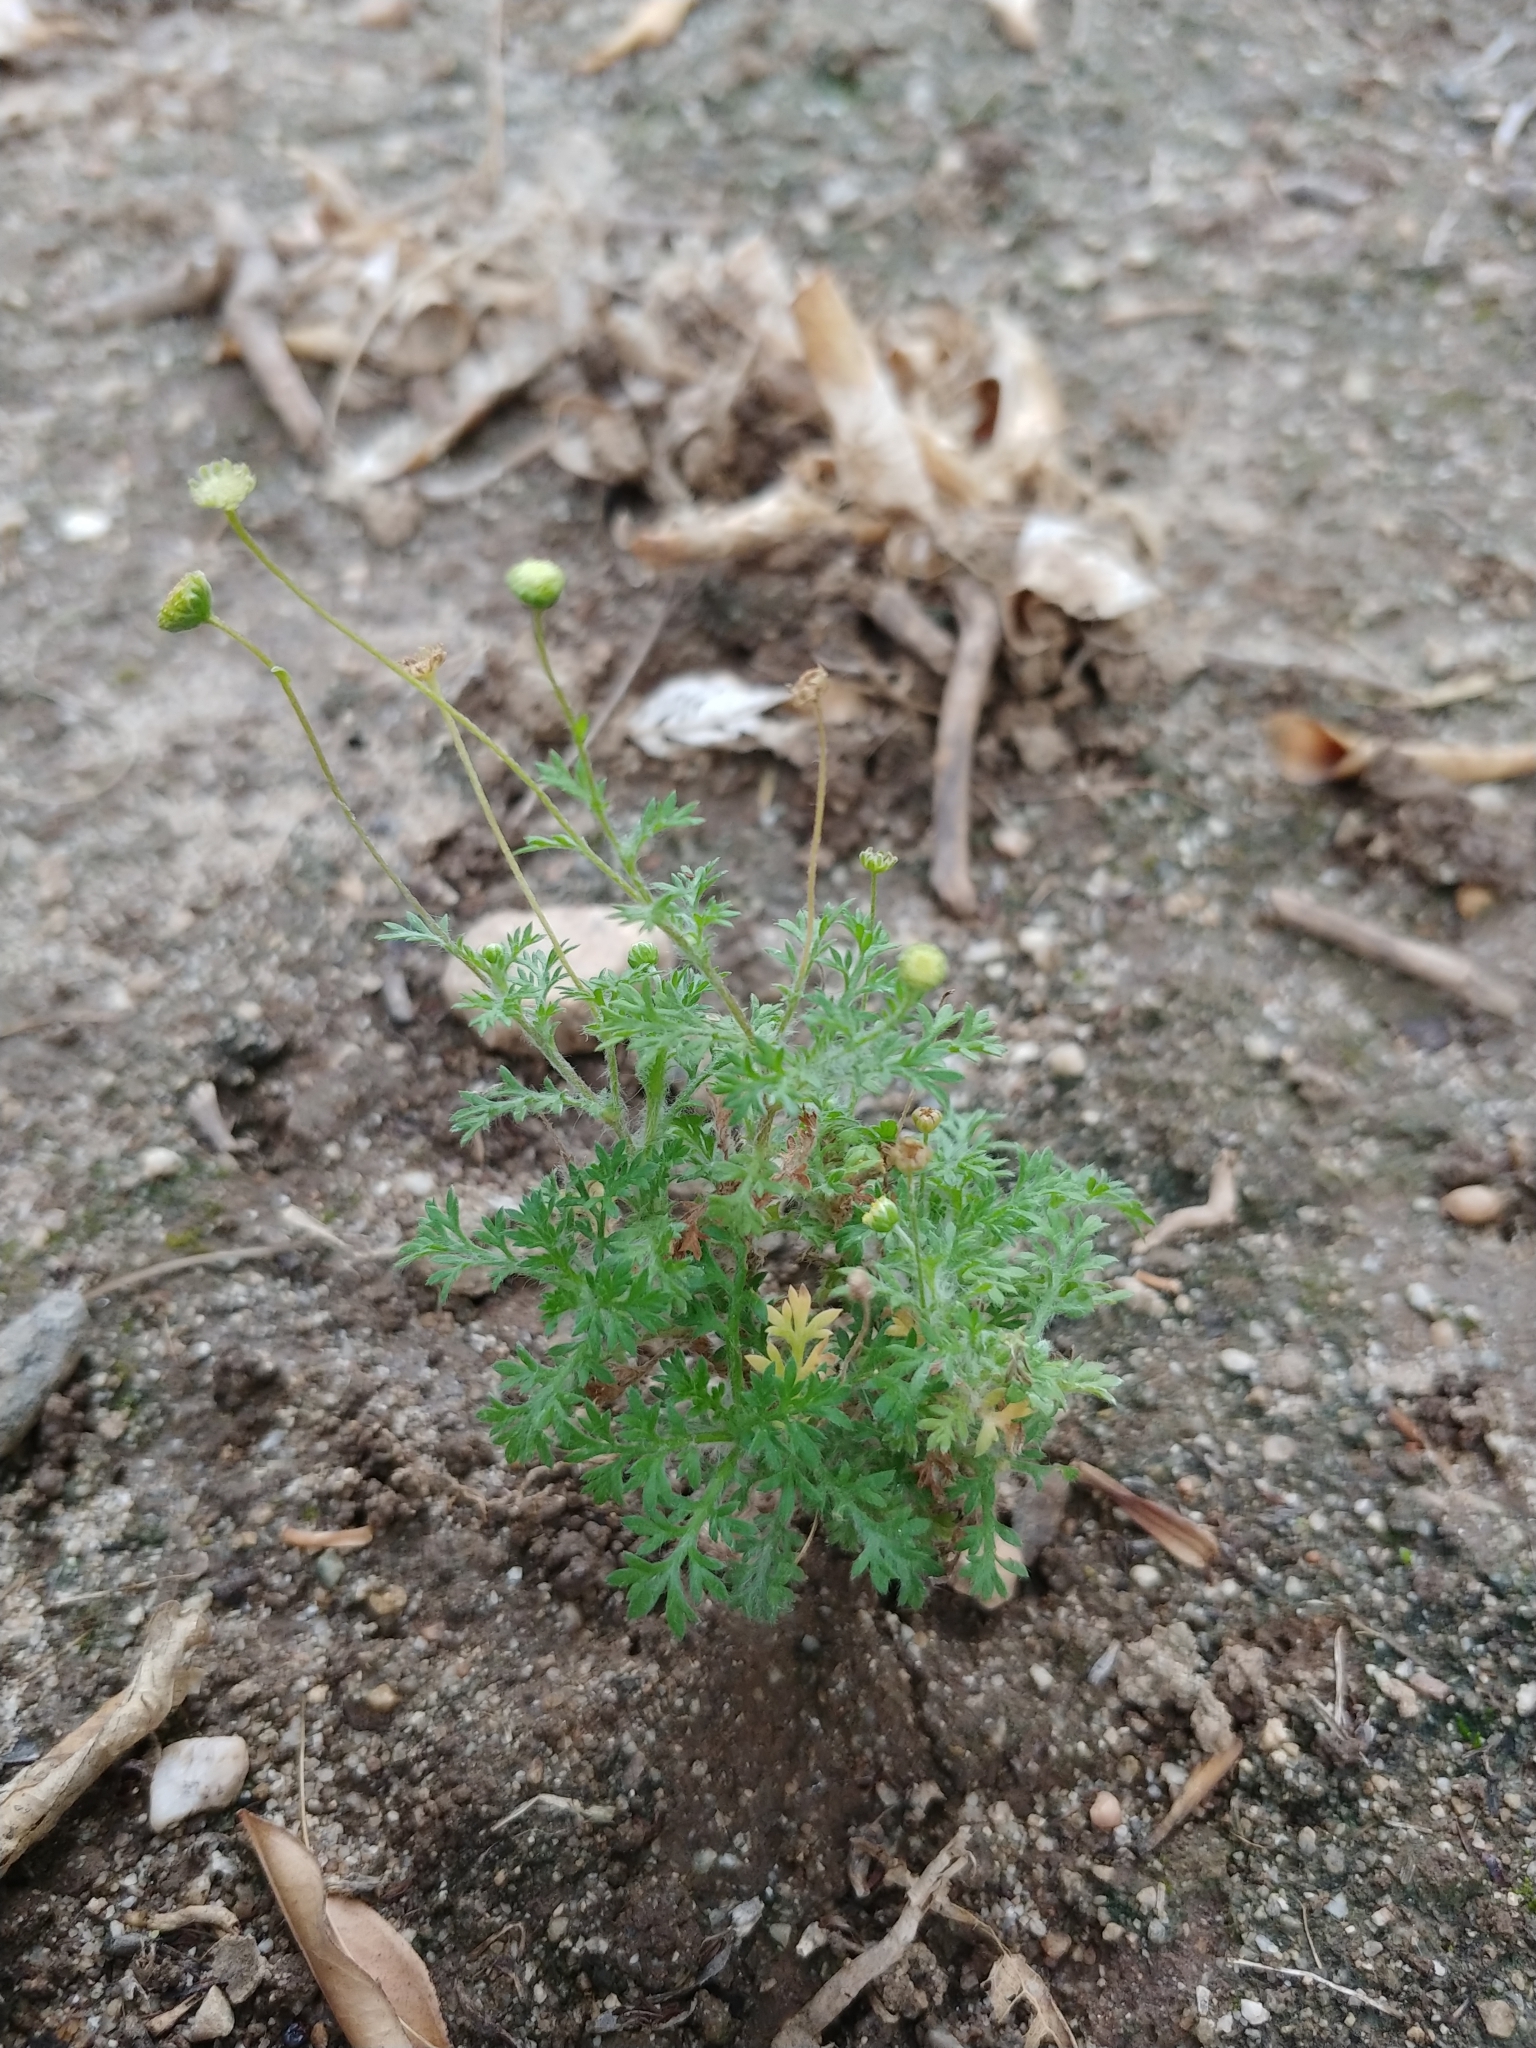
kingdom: Plantae
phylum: Tracheophyta
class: Magnoliopsida
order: Asterales
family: Asteraceae
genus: Cotula
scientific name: Cotula australis
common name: Australian waterbuttons
